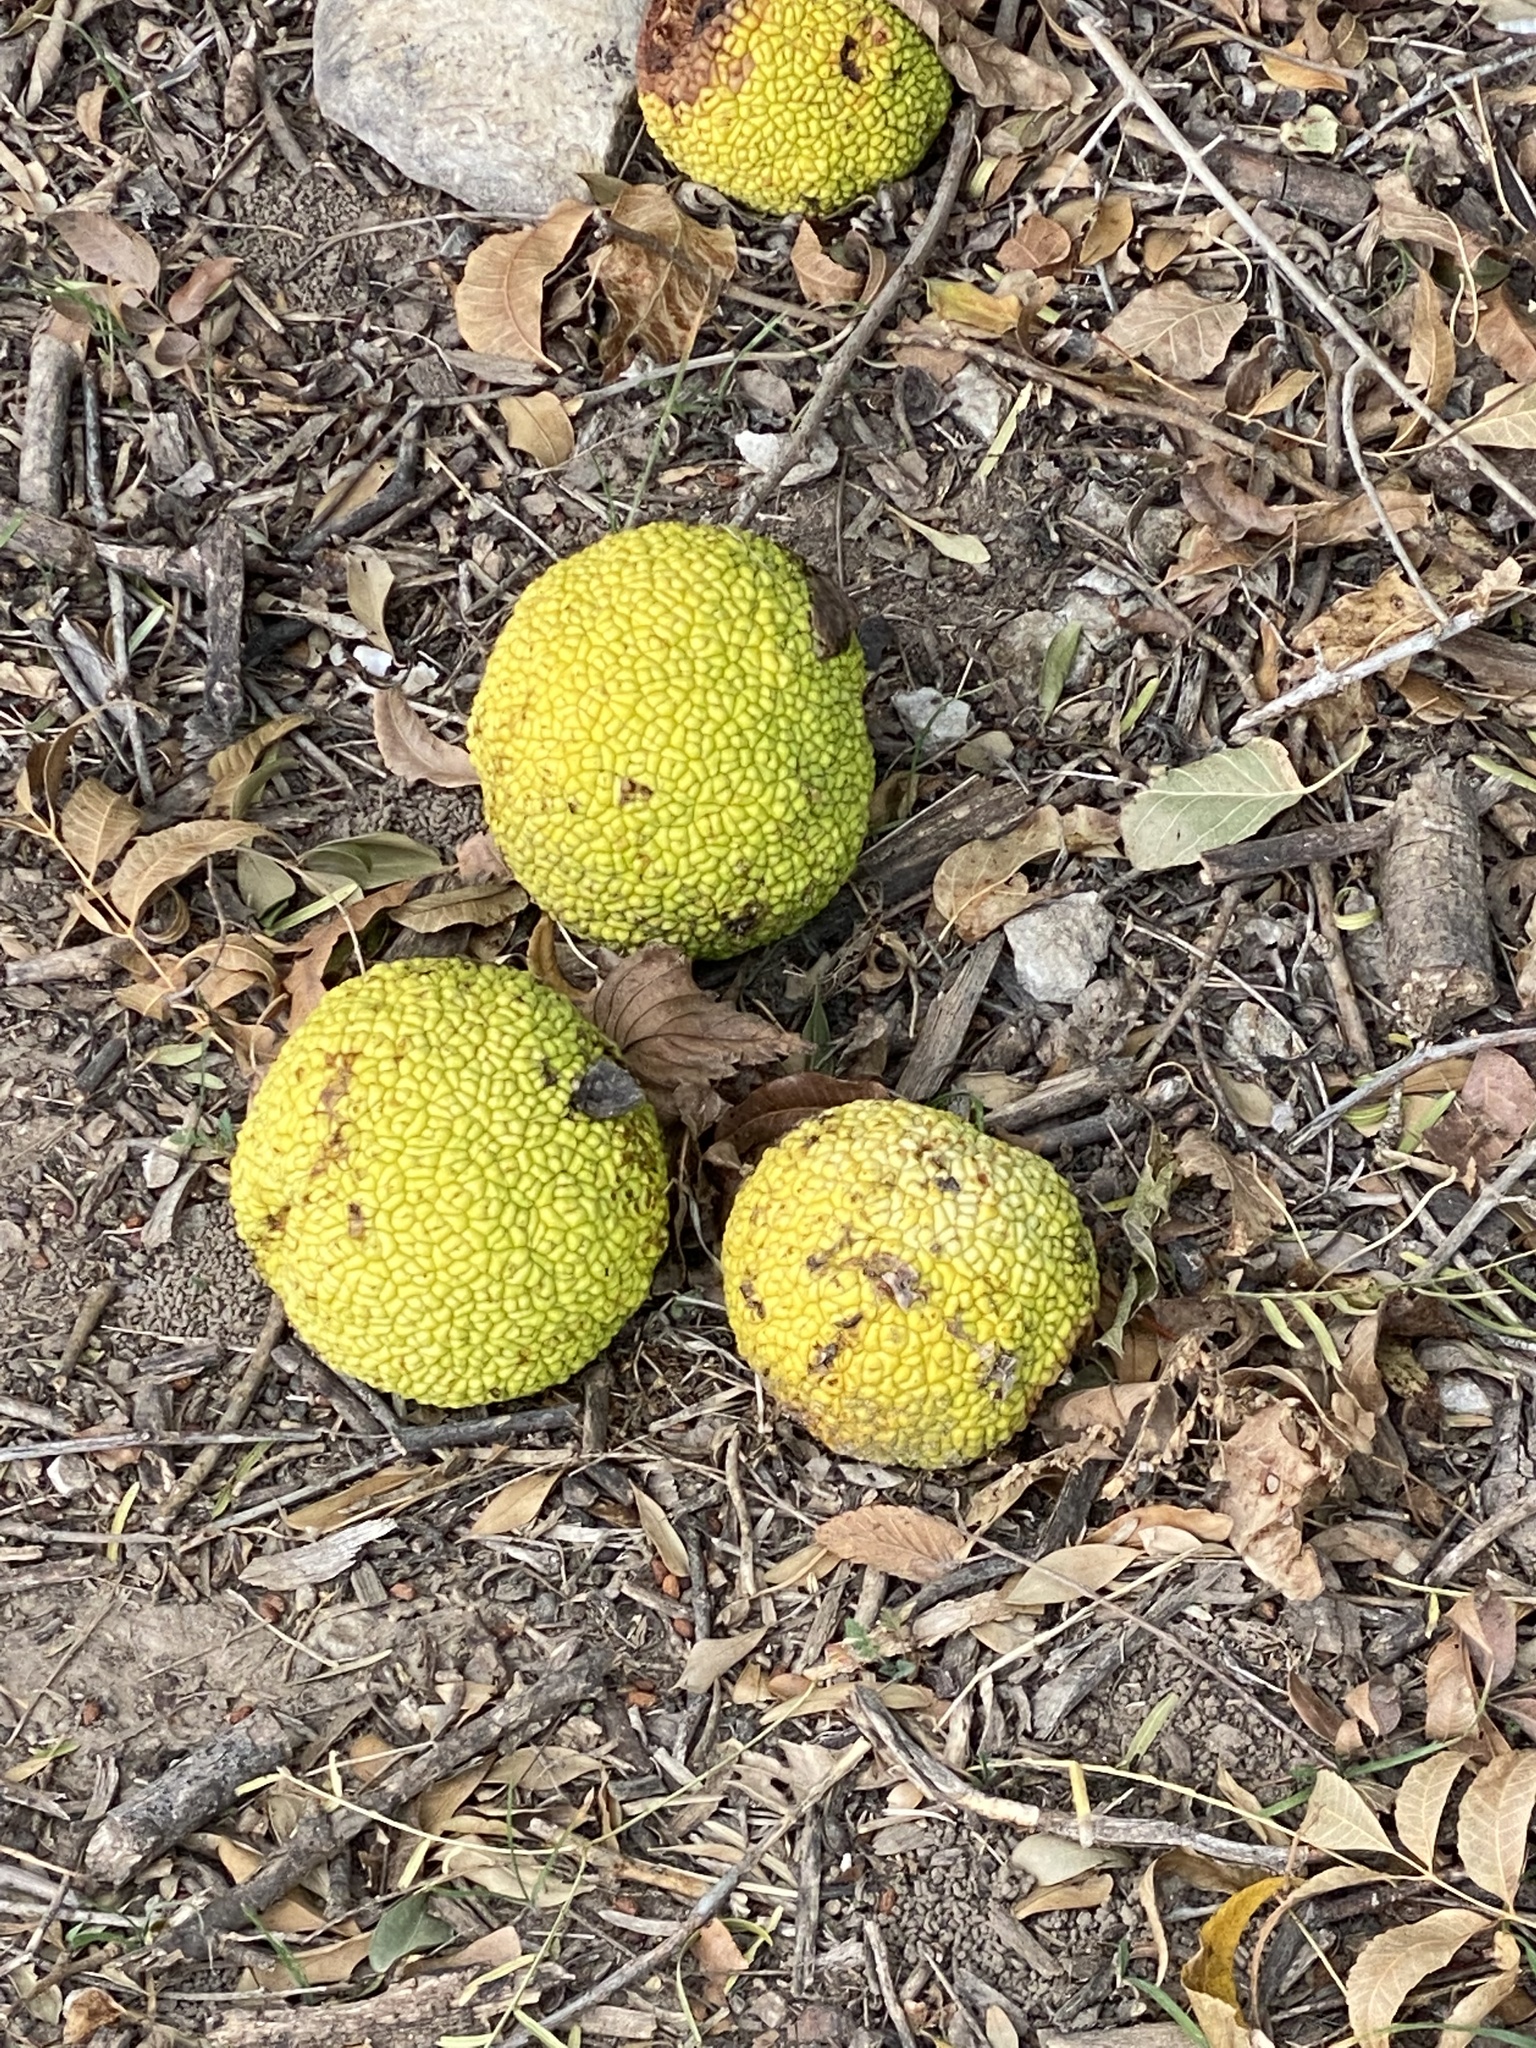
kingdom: Plantae
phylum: Tracheophyta
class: Magnoliopsida
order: Rosales
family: Moraceae
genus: Maclura
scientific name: Maclura pomifera
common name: Osage-orange
